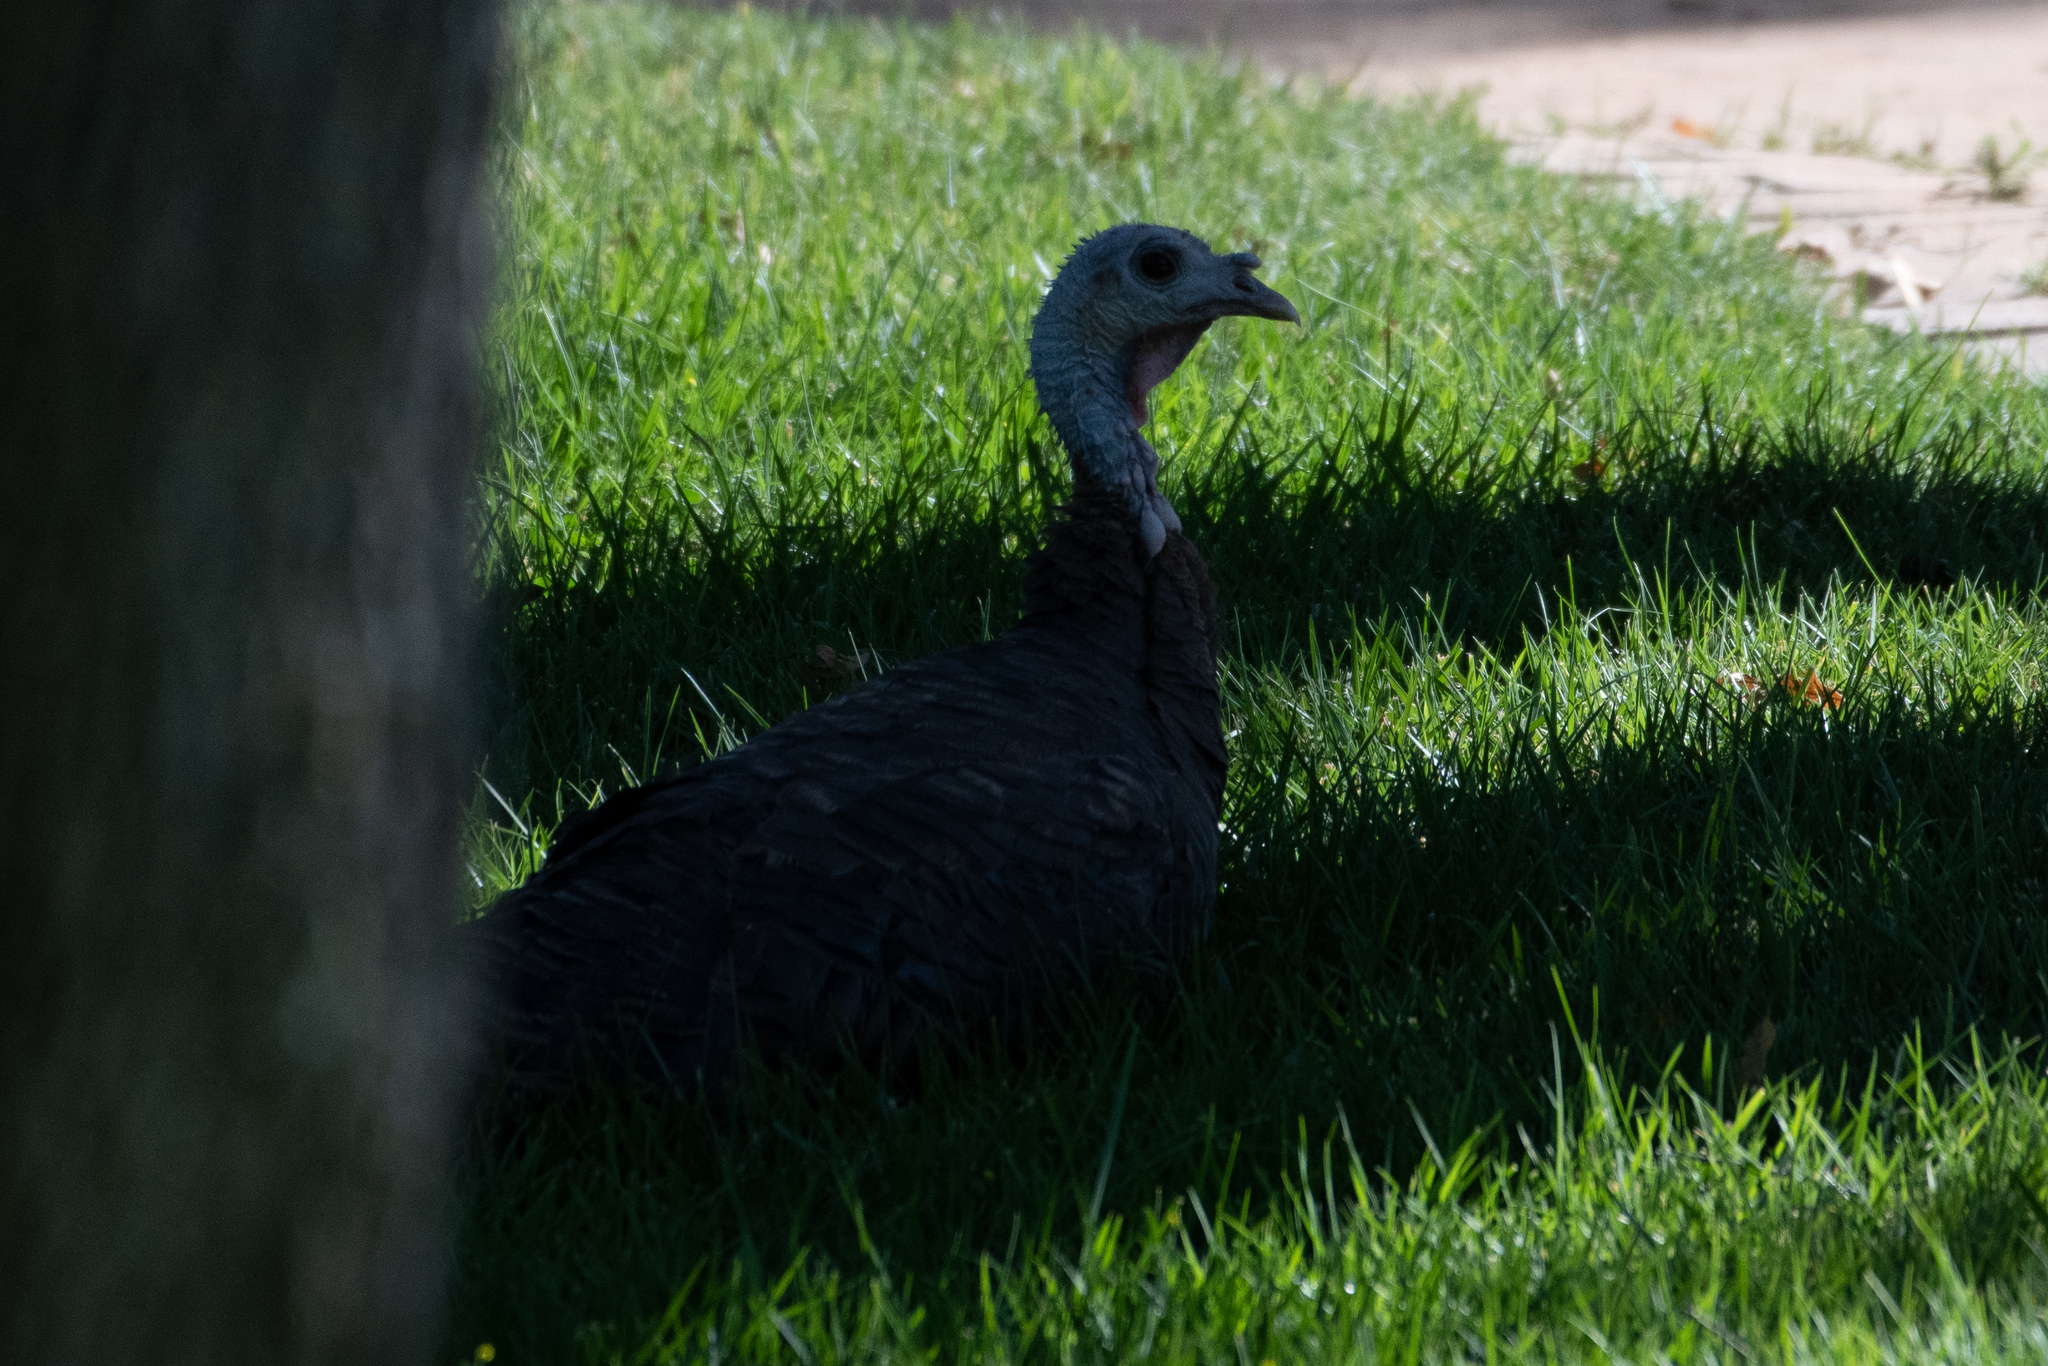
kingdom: Animalia
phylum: Chordata
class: Aves
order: Galliformes
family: Phasianidae
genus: Meleagris
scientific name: Meleagris gallopavo
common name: Wild turkey
